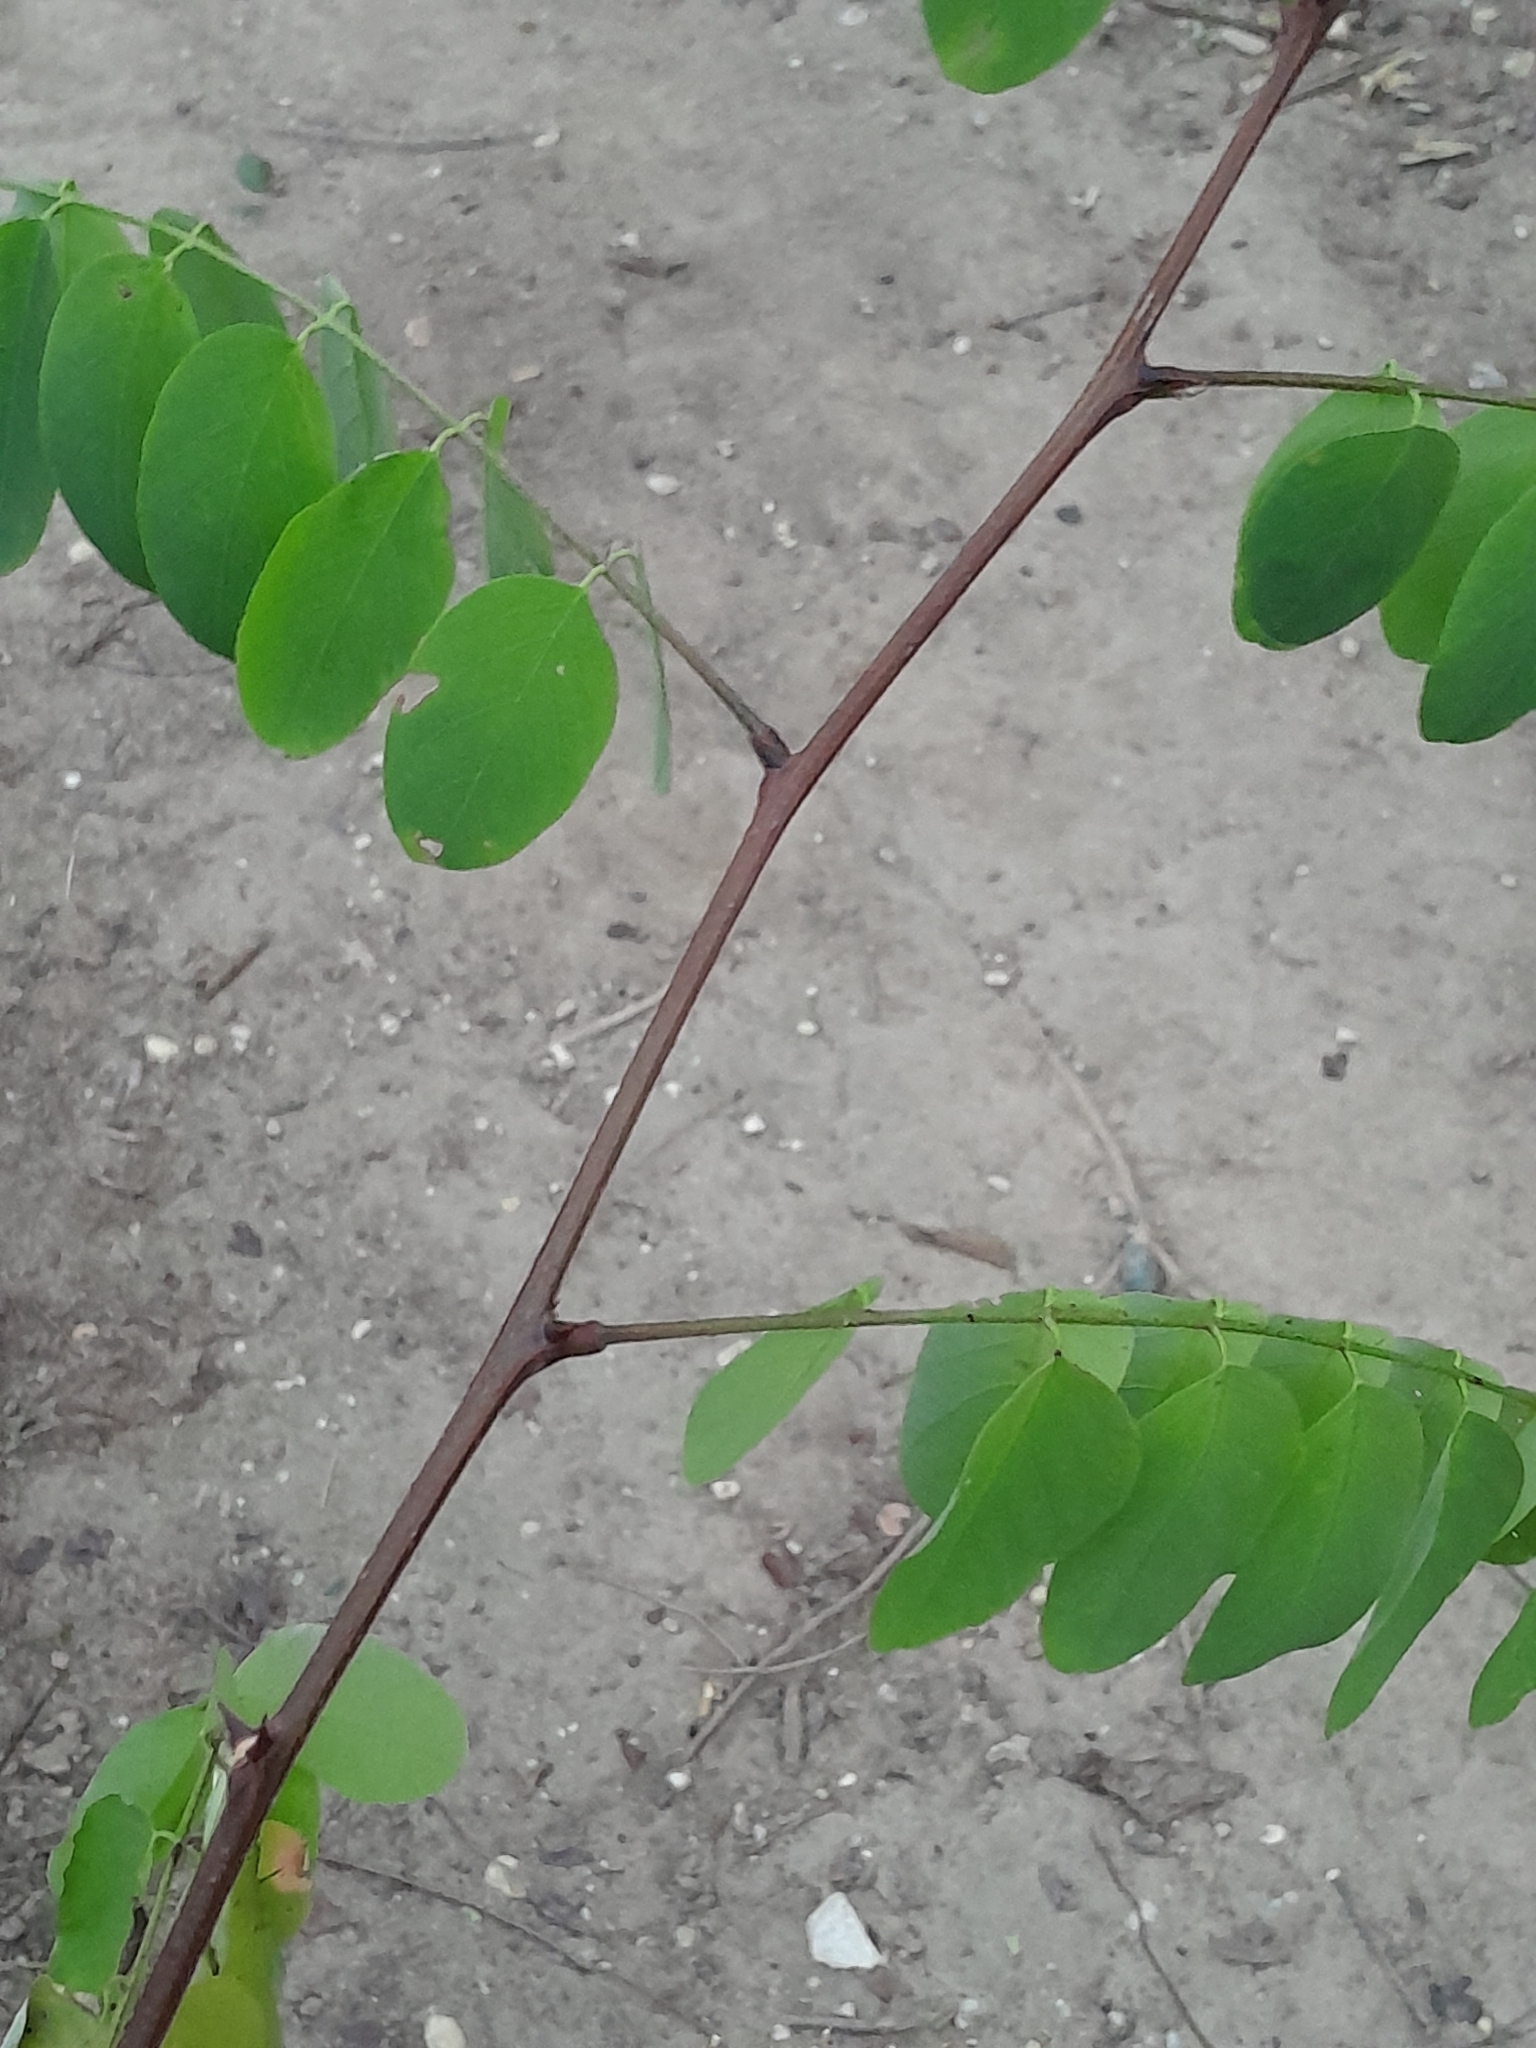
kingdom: Plantae
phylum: Tracheophyta
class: Magnoliopsida
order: Fabales
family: Fabaceae
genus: Robinia
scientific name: Robinia pseudoacacia
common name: Black locust
